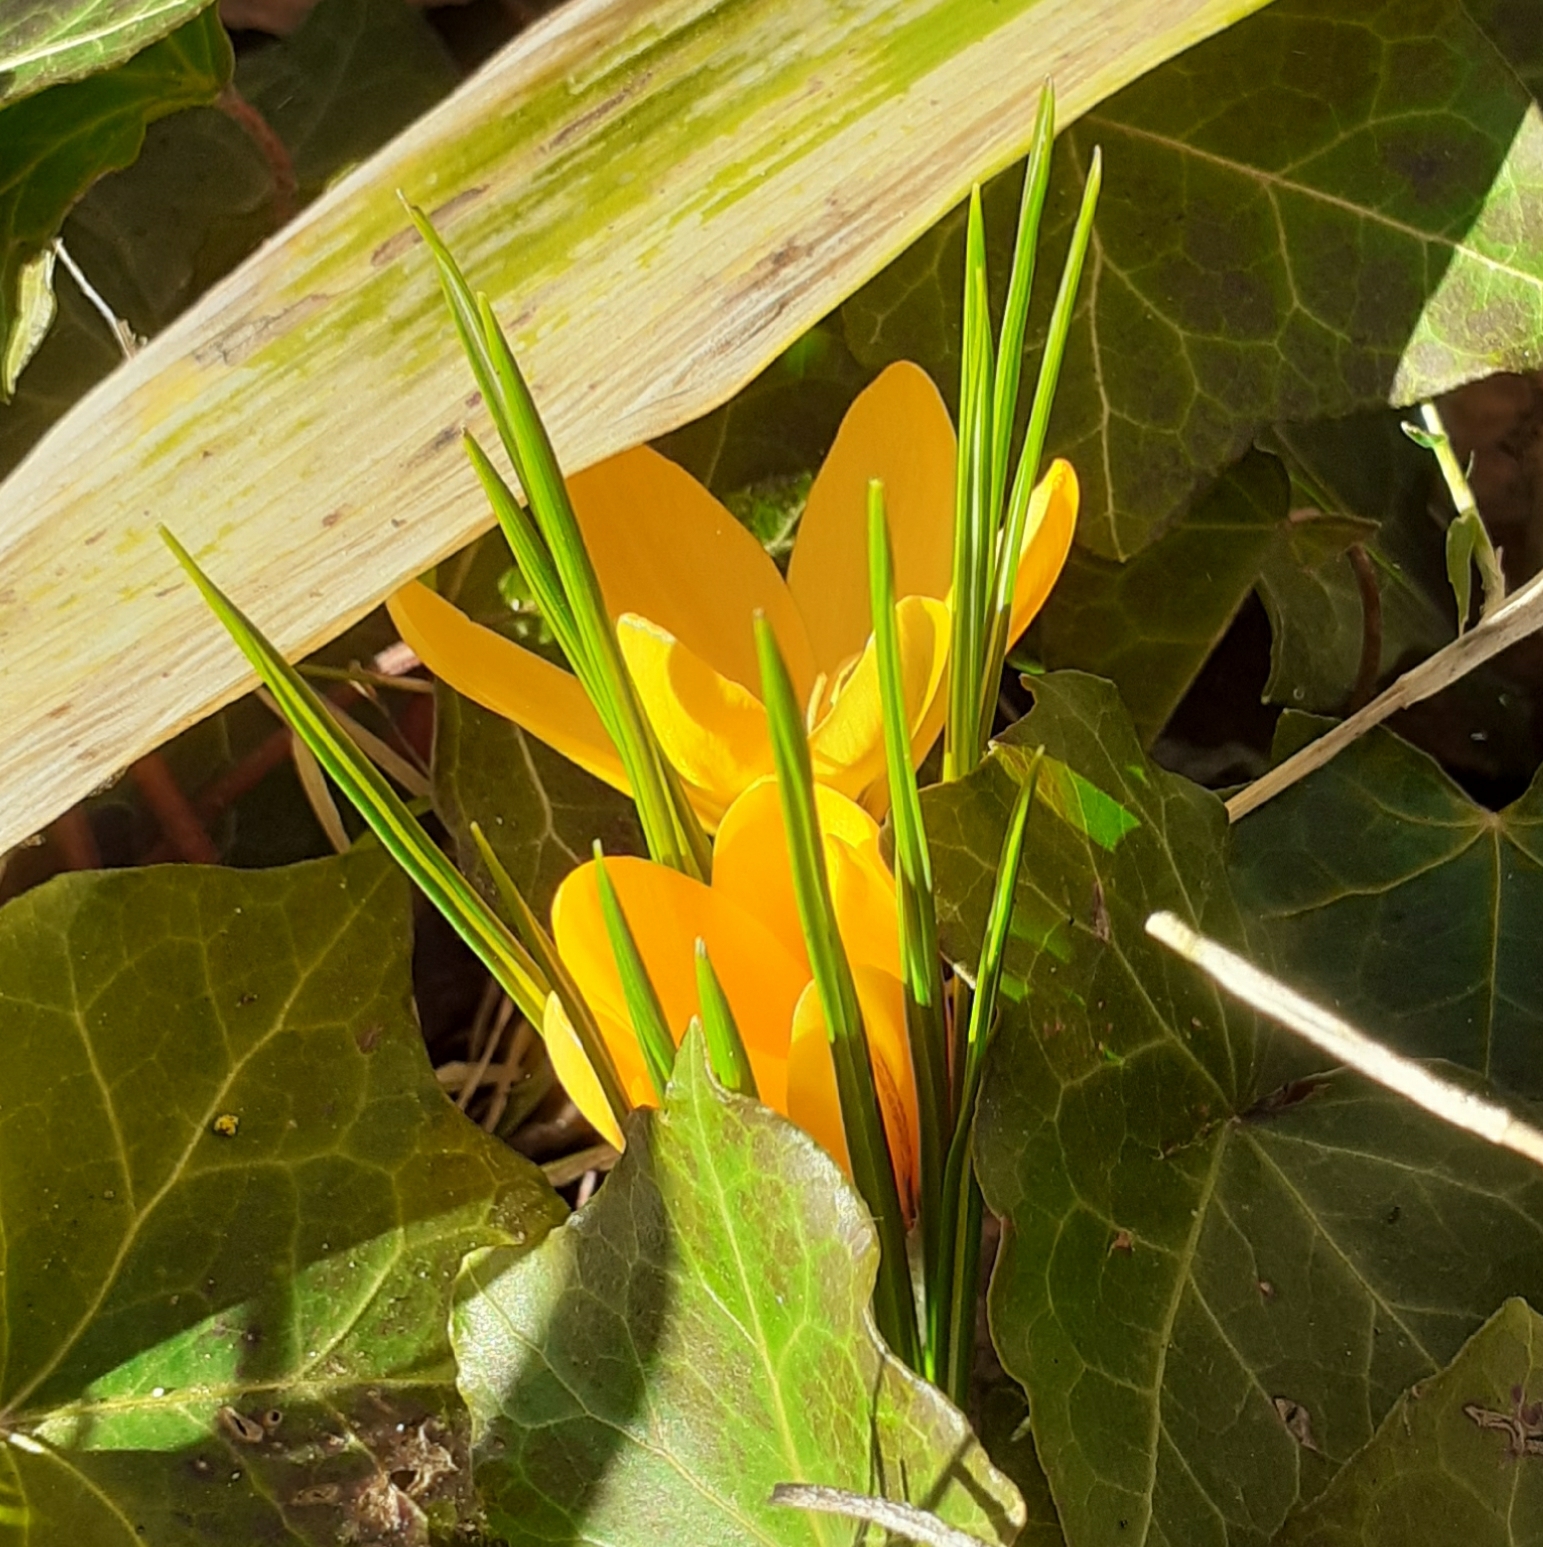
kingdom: Plantae
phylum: Tracheophyta
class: Liliopsida
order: Asparagales
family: Iridaceae
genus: Crocus
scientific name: Crocus luteus
